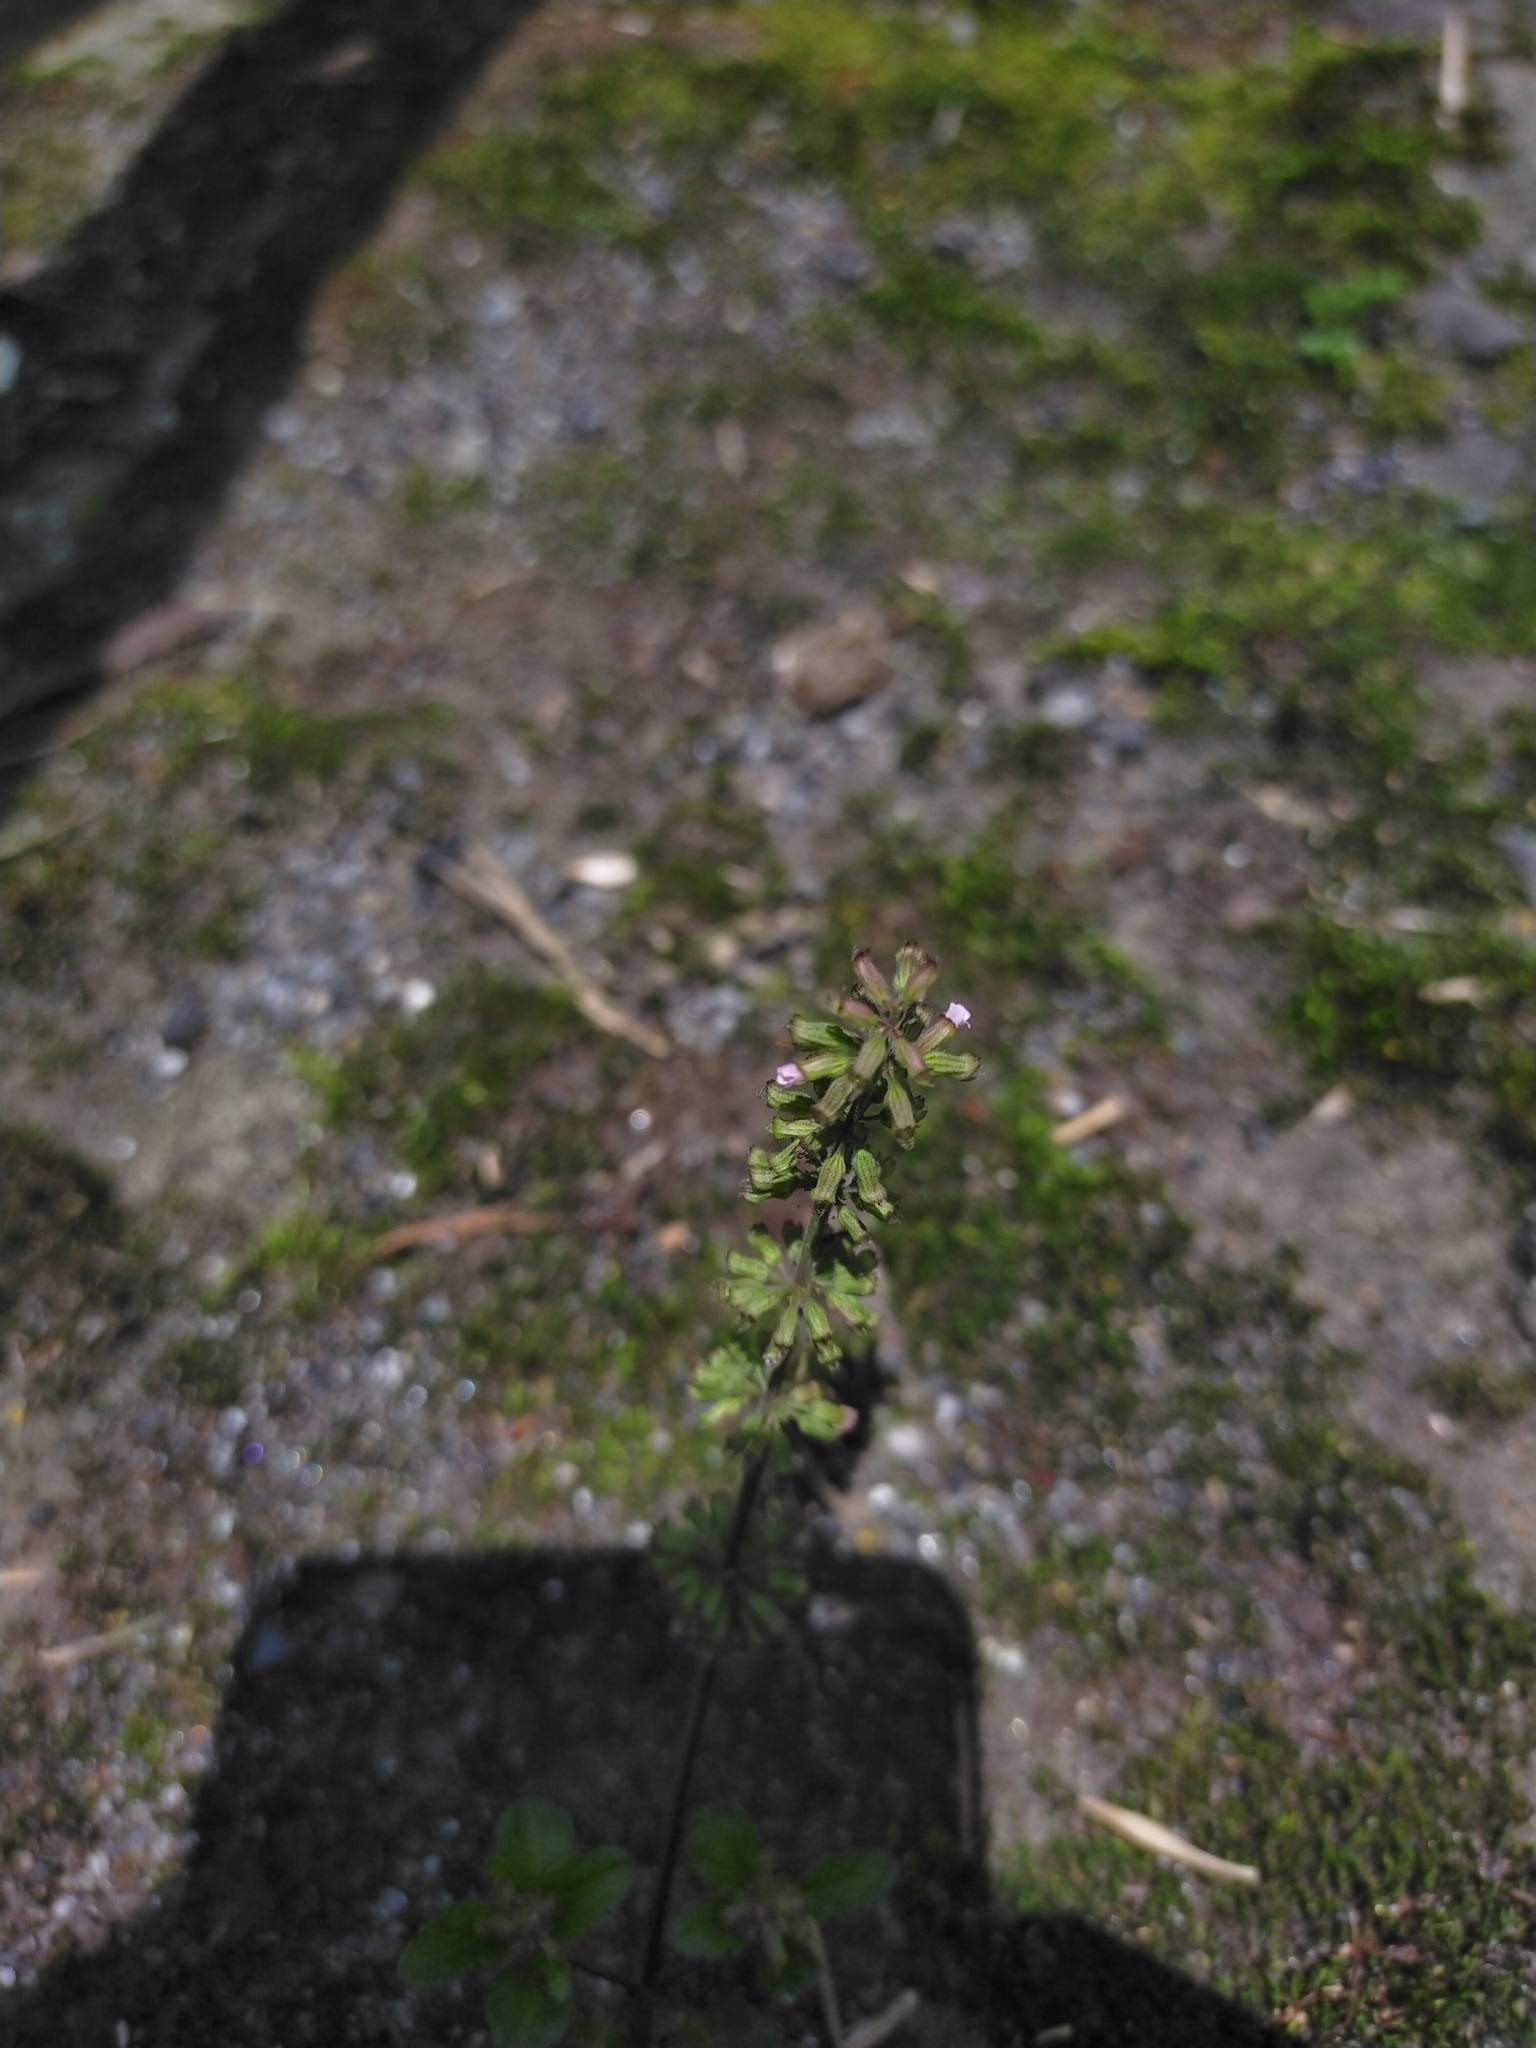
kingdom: Plantae
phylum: Tracheophyta
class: Magnoliopsida
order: Lamiales
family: Lamiaceae
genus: Clinopodium
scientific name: Clinopodium gracile
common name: Slender wild basil
